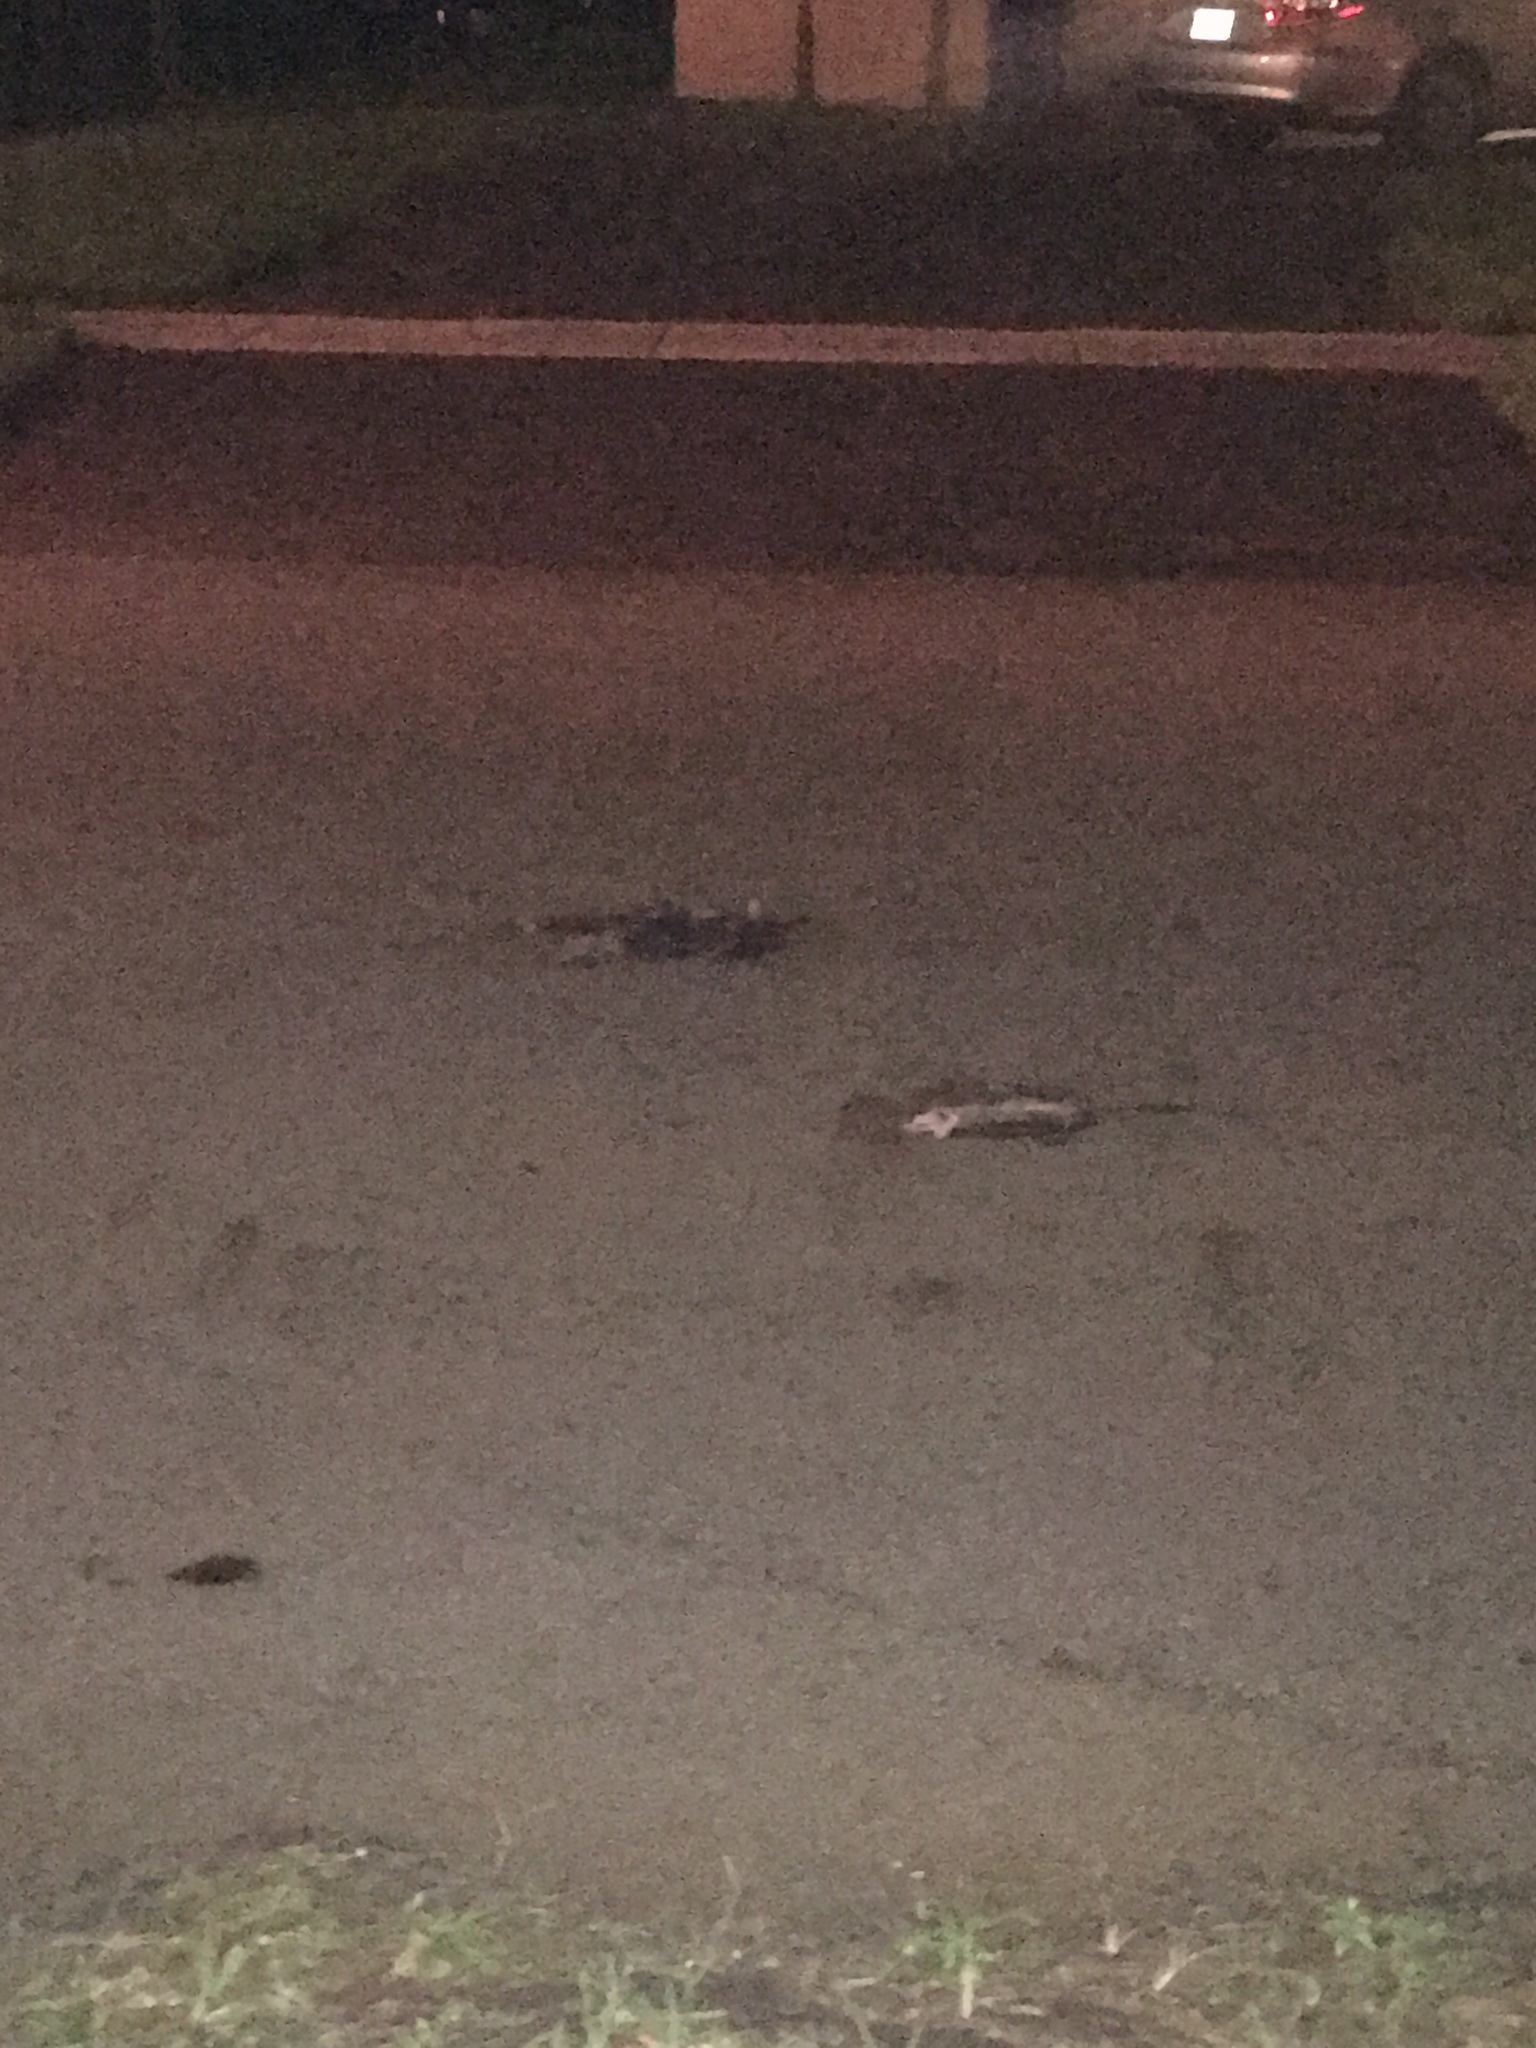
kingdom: Animalia
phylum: Chordata
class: Mammalia
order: Didelphimorphia
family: Didelphidae
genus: Didelphis
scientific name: Didelphis virginiana
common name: Virginia opossum
